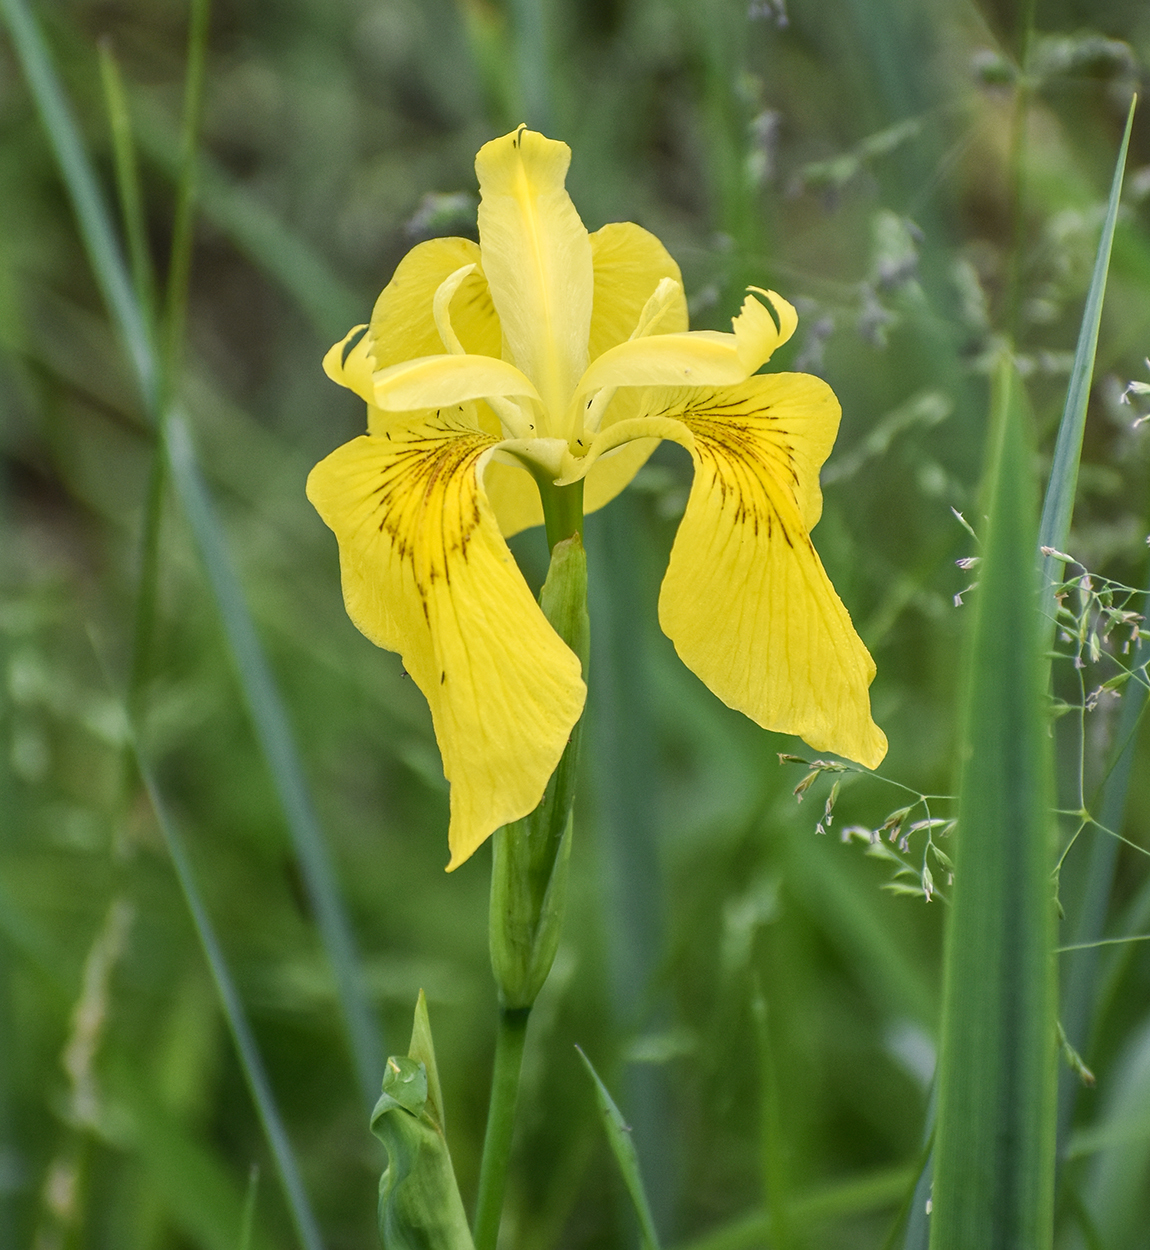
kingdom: Plantae
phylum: Tracheophyta
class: Liliopsida
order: Asparagales
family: Iridaceae
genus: Iris
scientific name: Iris pseudacorus
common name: Yellow flag
